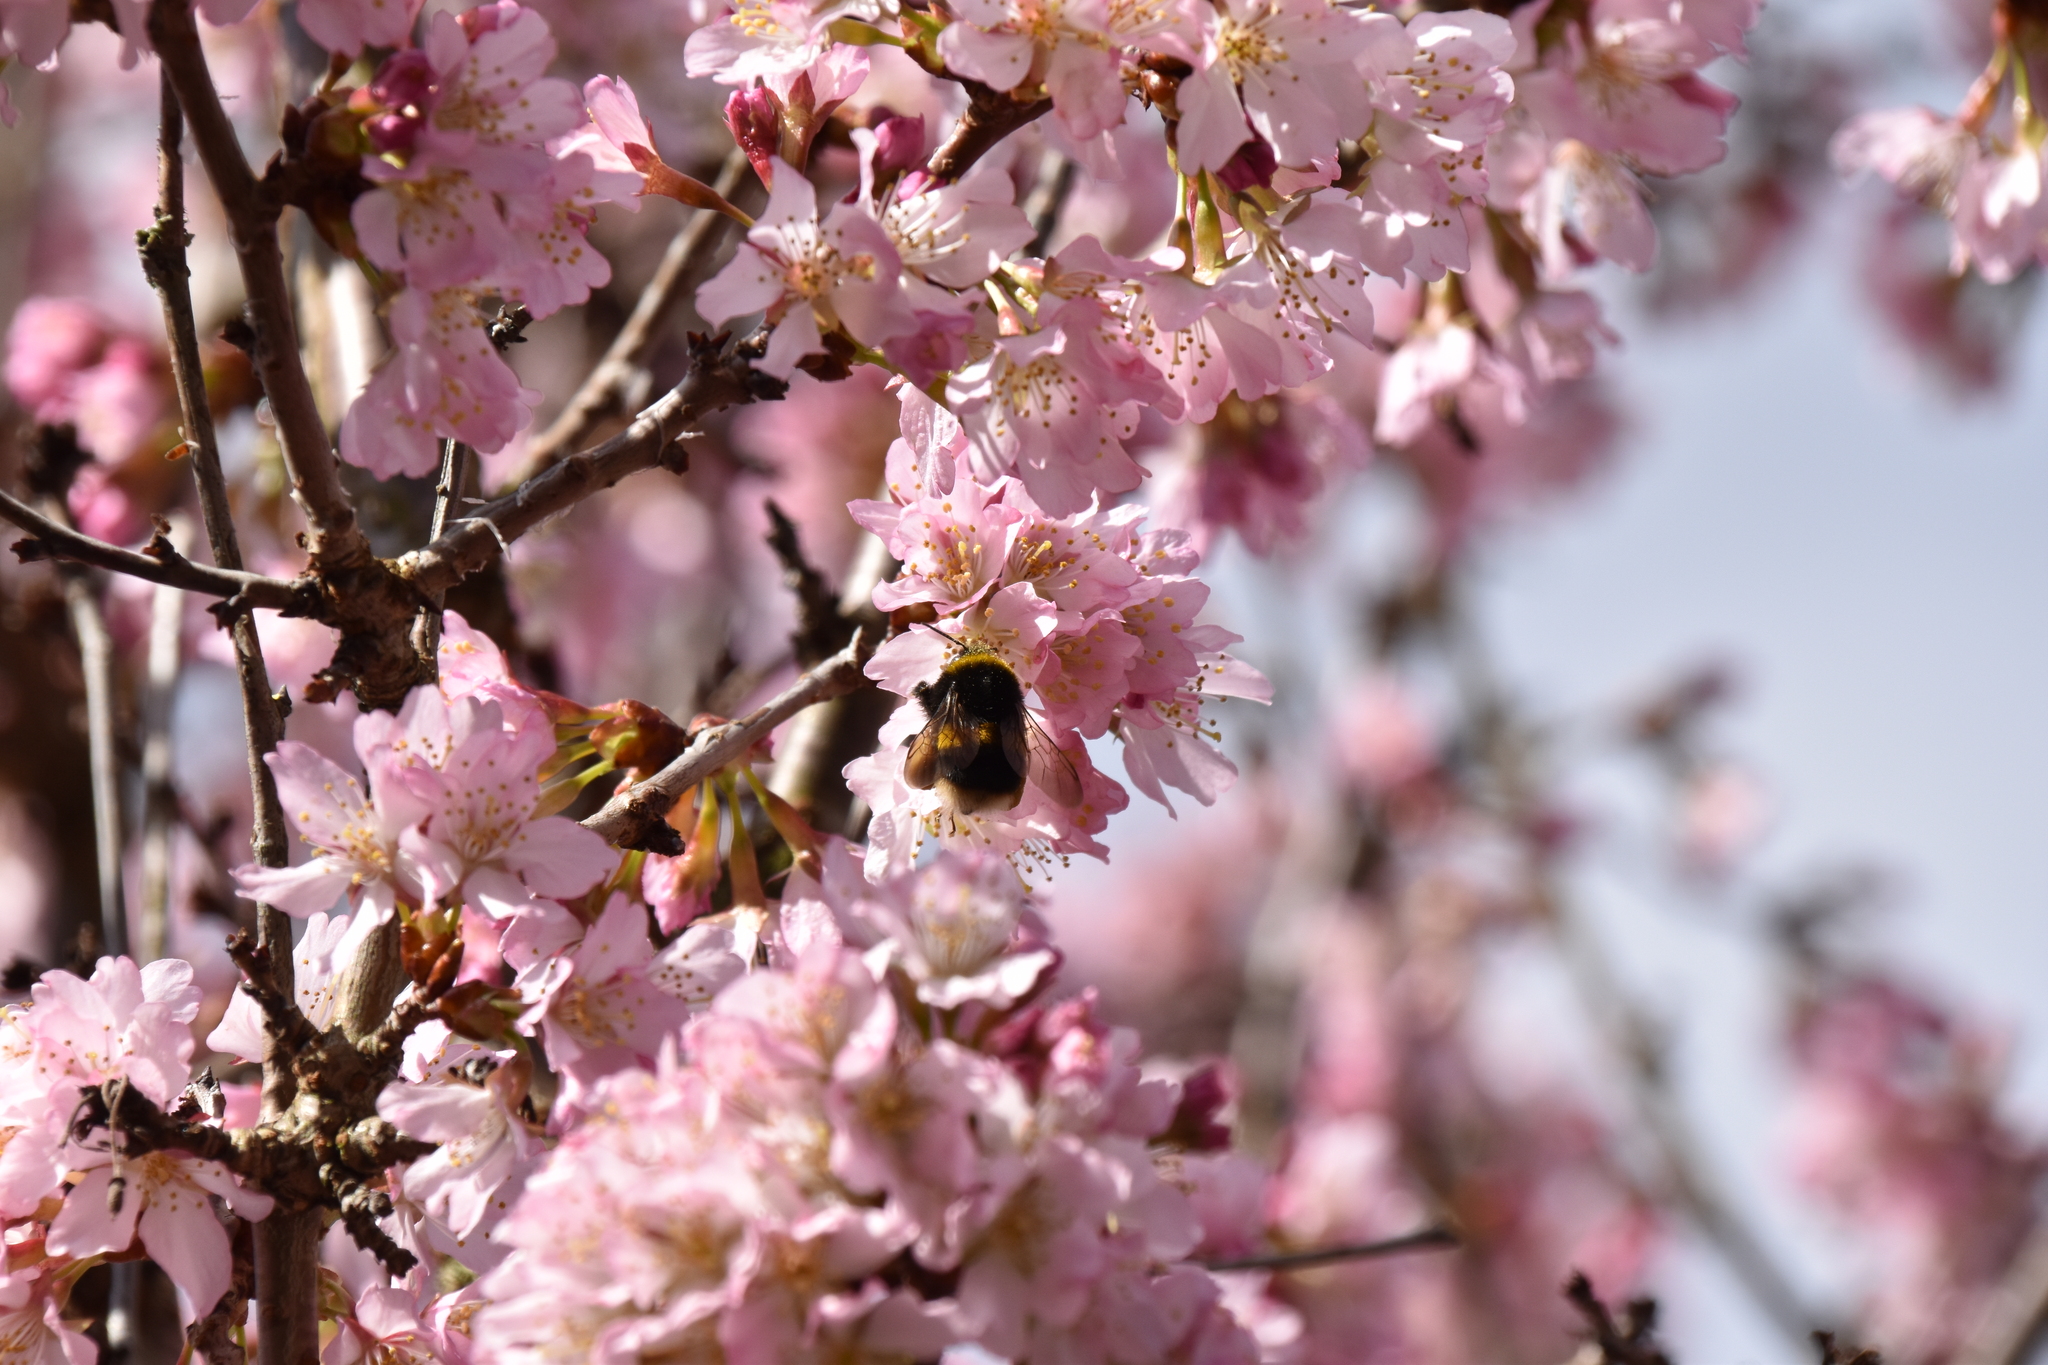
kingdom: Animalia
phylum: Arthropoda
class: Insecta
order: Hymenoptera
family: Apidae
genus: Bombus
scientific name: Bombus terrestris
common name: Buff-tailed bumblebee
